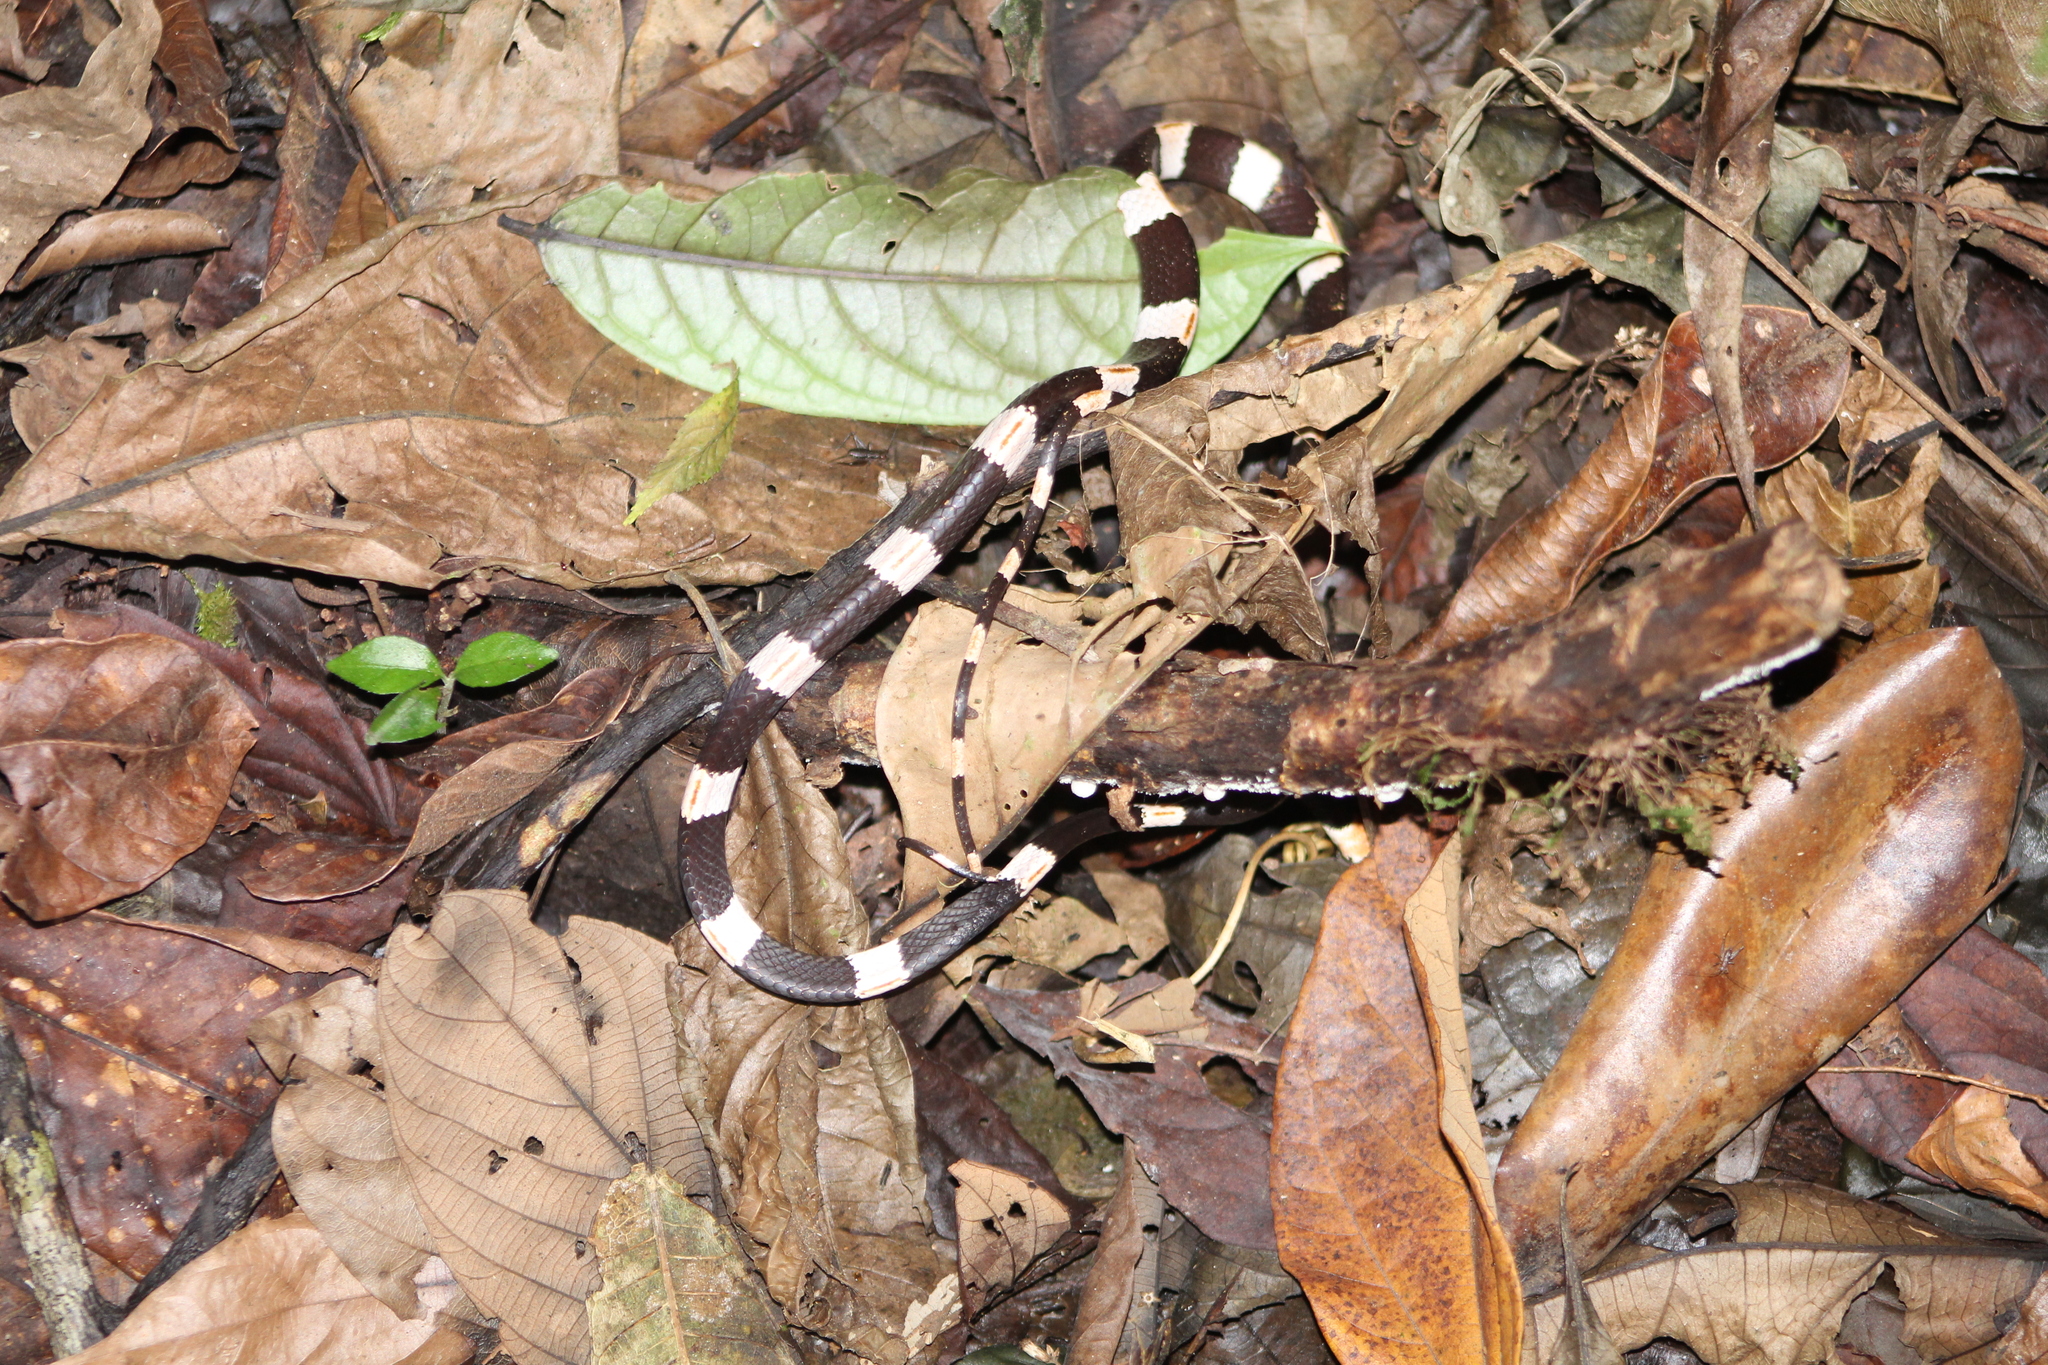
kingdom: Animalia
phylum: Chordata
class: Squamata
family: Colubridae
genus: Dipsas
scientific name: Dipsas articulata
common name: American snail-eater
